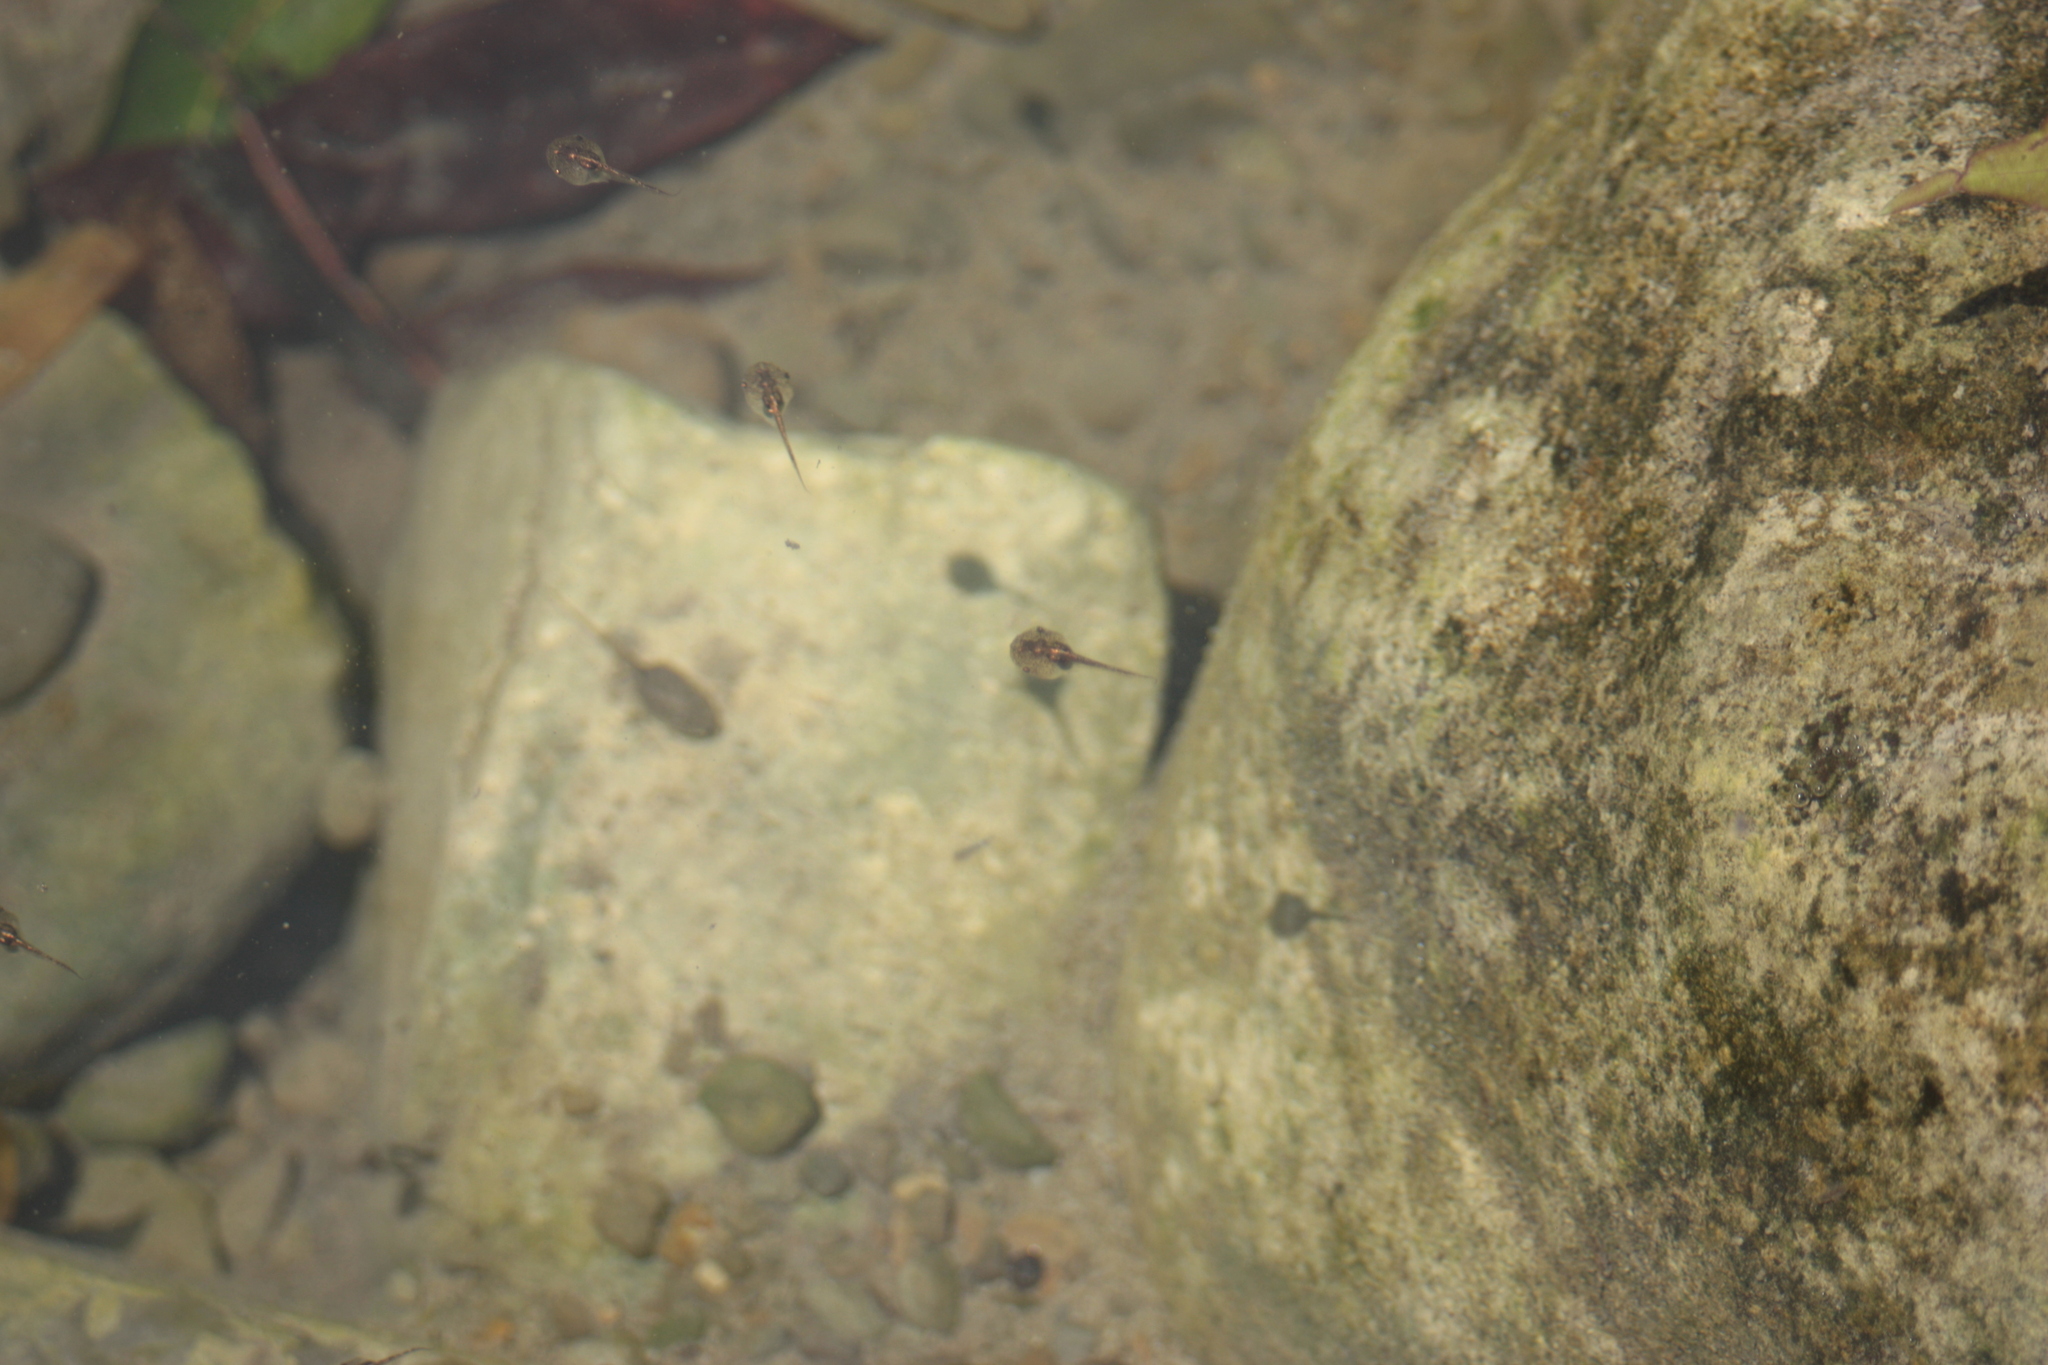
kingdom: Animalia
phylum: Chordata
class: Amphibia
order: Anura
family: Microhylidae
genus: Microhyla
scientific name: Microhyla fissipes
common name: Ornate narrow-mouthed frog
